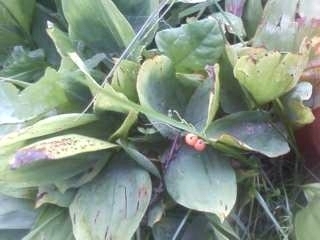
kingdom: Plantae
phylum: Tracheophyta
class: Liliopsida
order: Asparagales
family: Asparagaceae
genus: Convallaria
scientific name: Convallaria majalis
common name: Lily-of-the-valley
